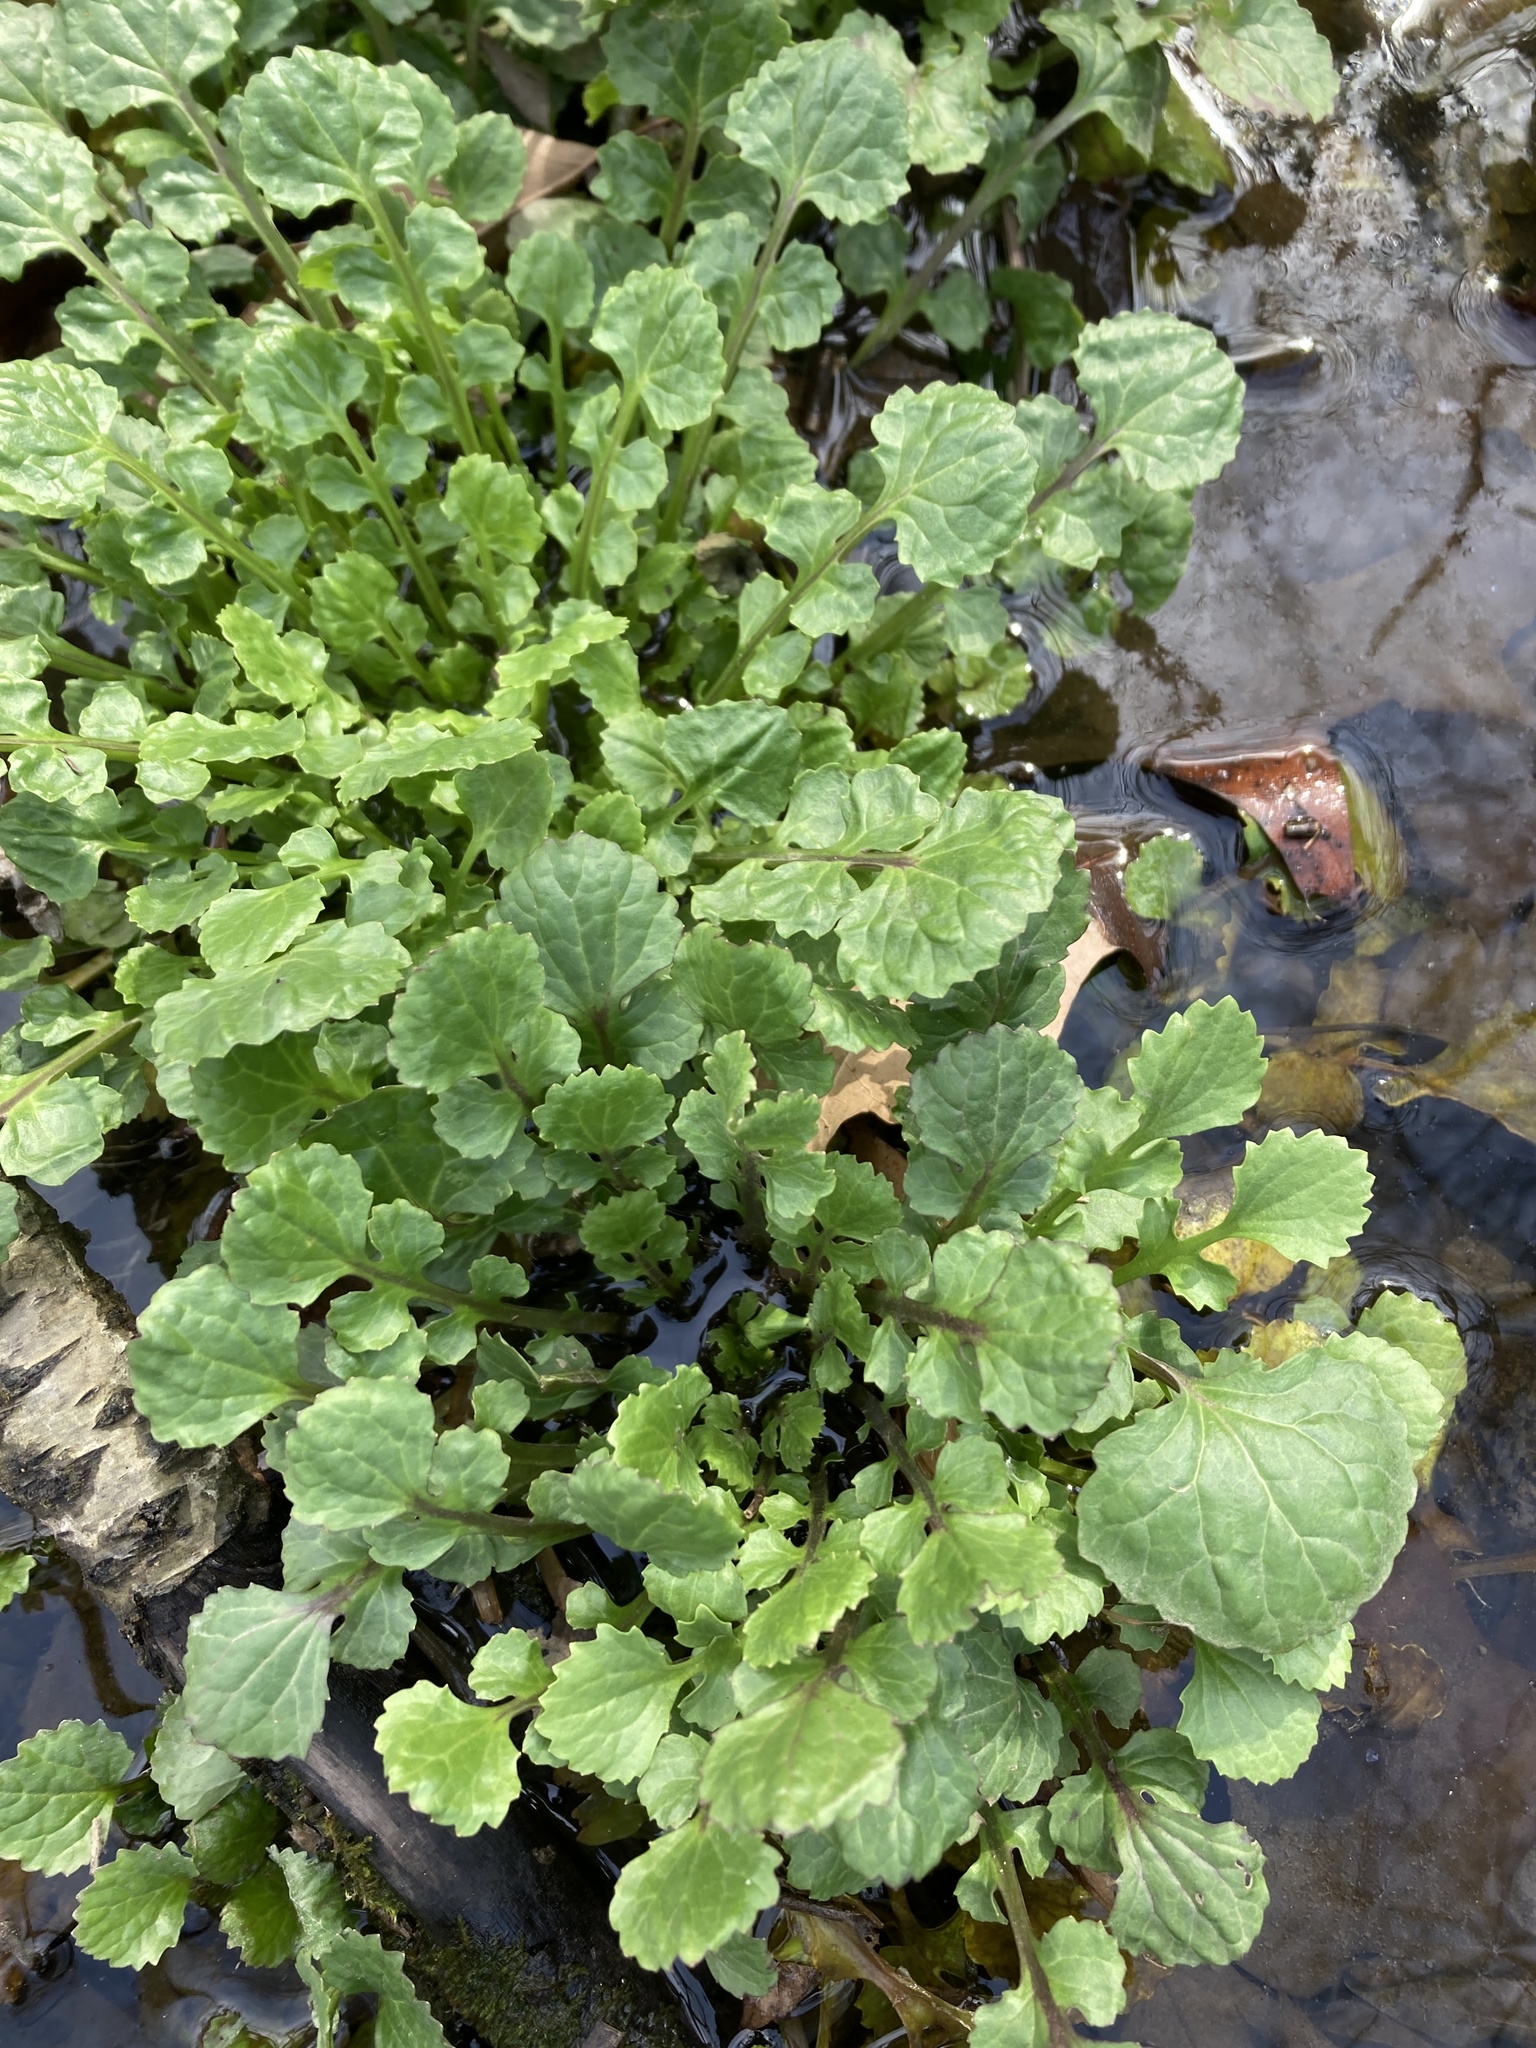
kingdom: Plantae
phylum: Tracheophyta
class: Magnoliopsida
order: Asterales
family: Asteraceae
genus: Packera
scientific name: Packera glabella
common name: Butterweed
